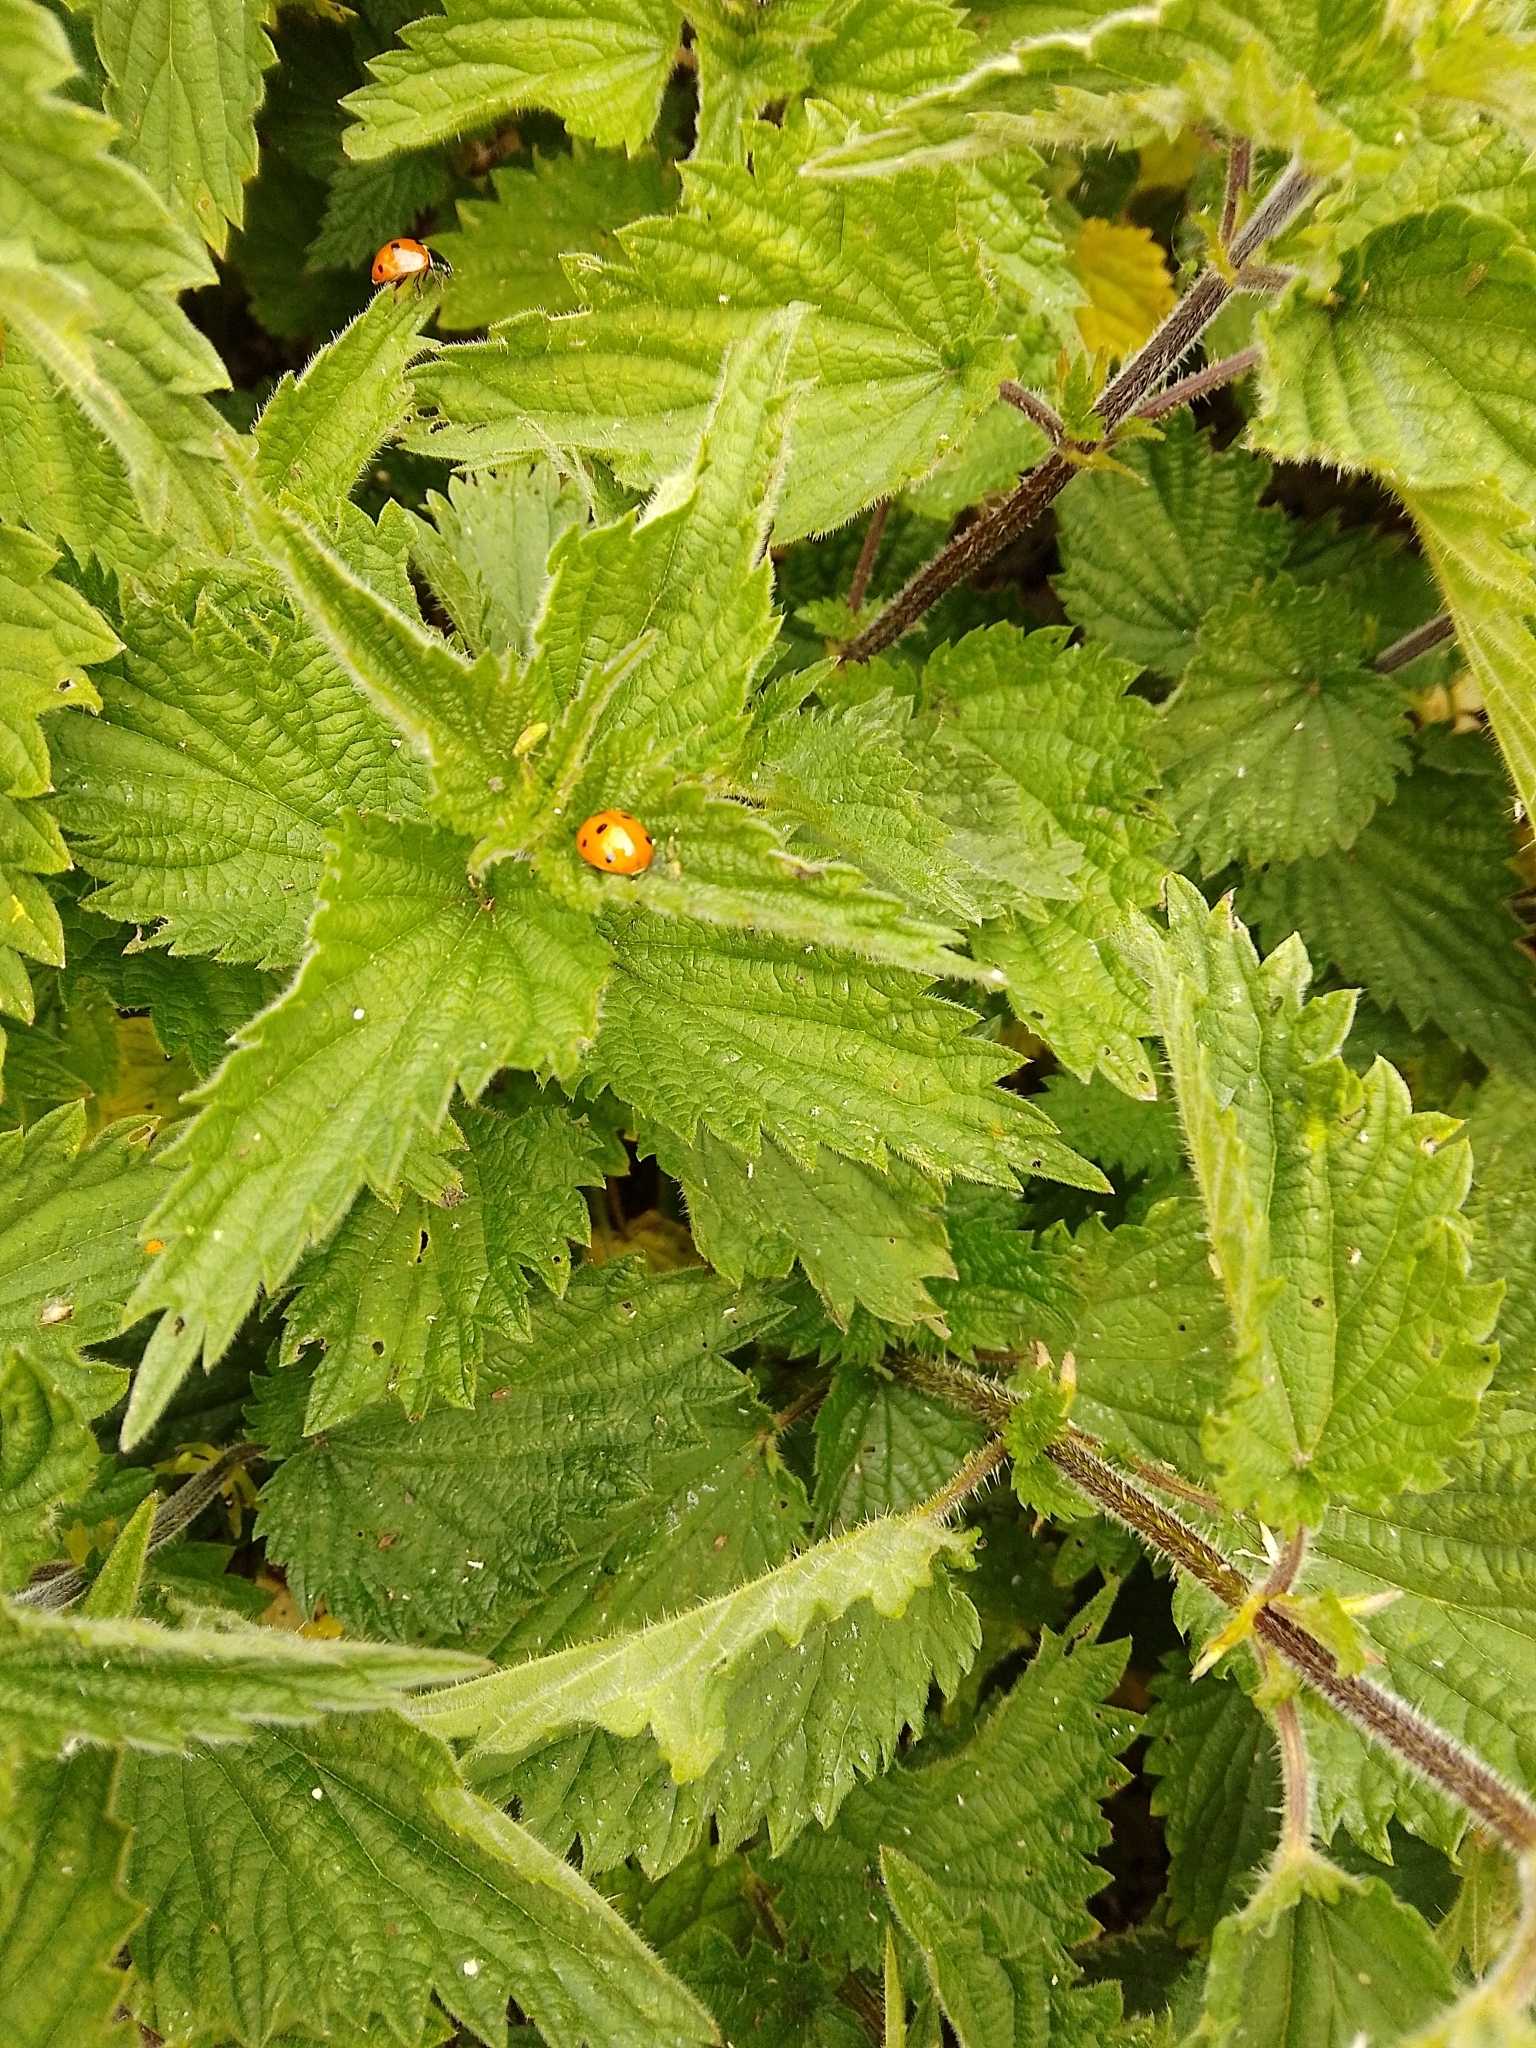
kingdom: Animalia
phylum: Arthropoda
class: Insecta
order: Coleoptera
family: Coccinellidae
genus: Coccinella
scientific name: Coccinella septempunctata
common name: Sevenspotted lady beetle
